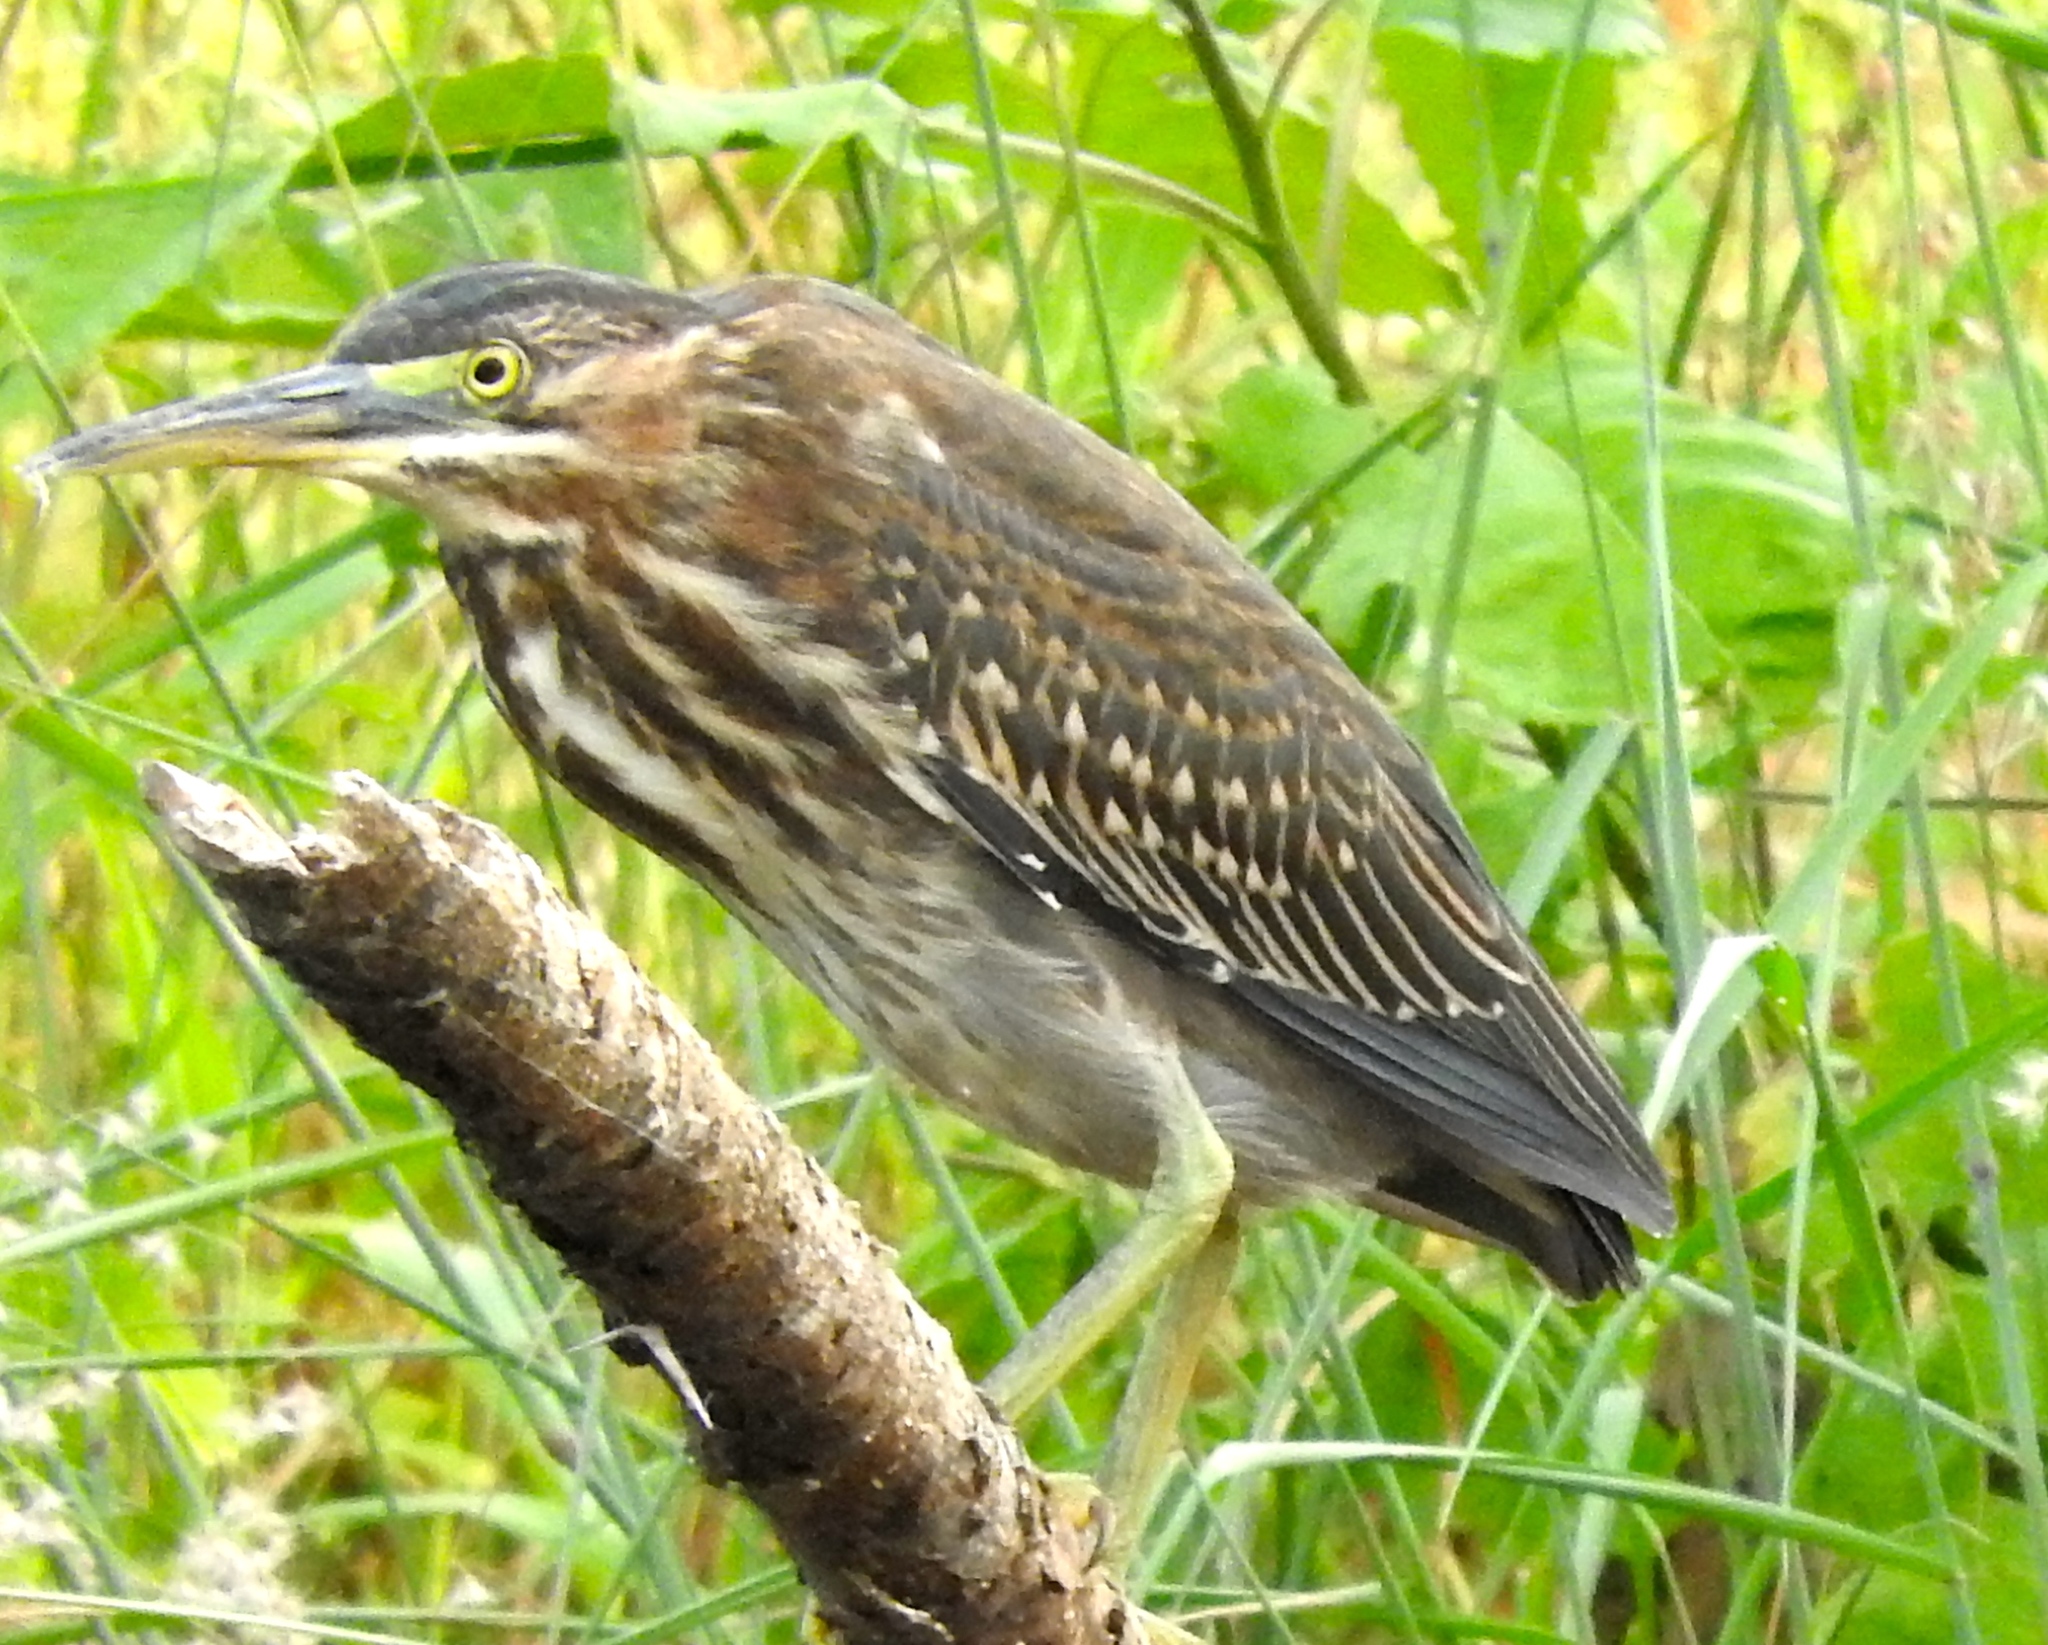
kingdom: Animalia
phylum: Chordata
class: Aves
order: Pelecaniformes
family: Ardeidae
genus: Butorides
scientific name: Butorides virescens
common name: Green heron
